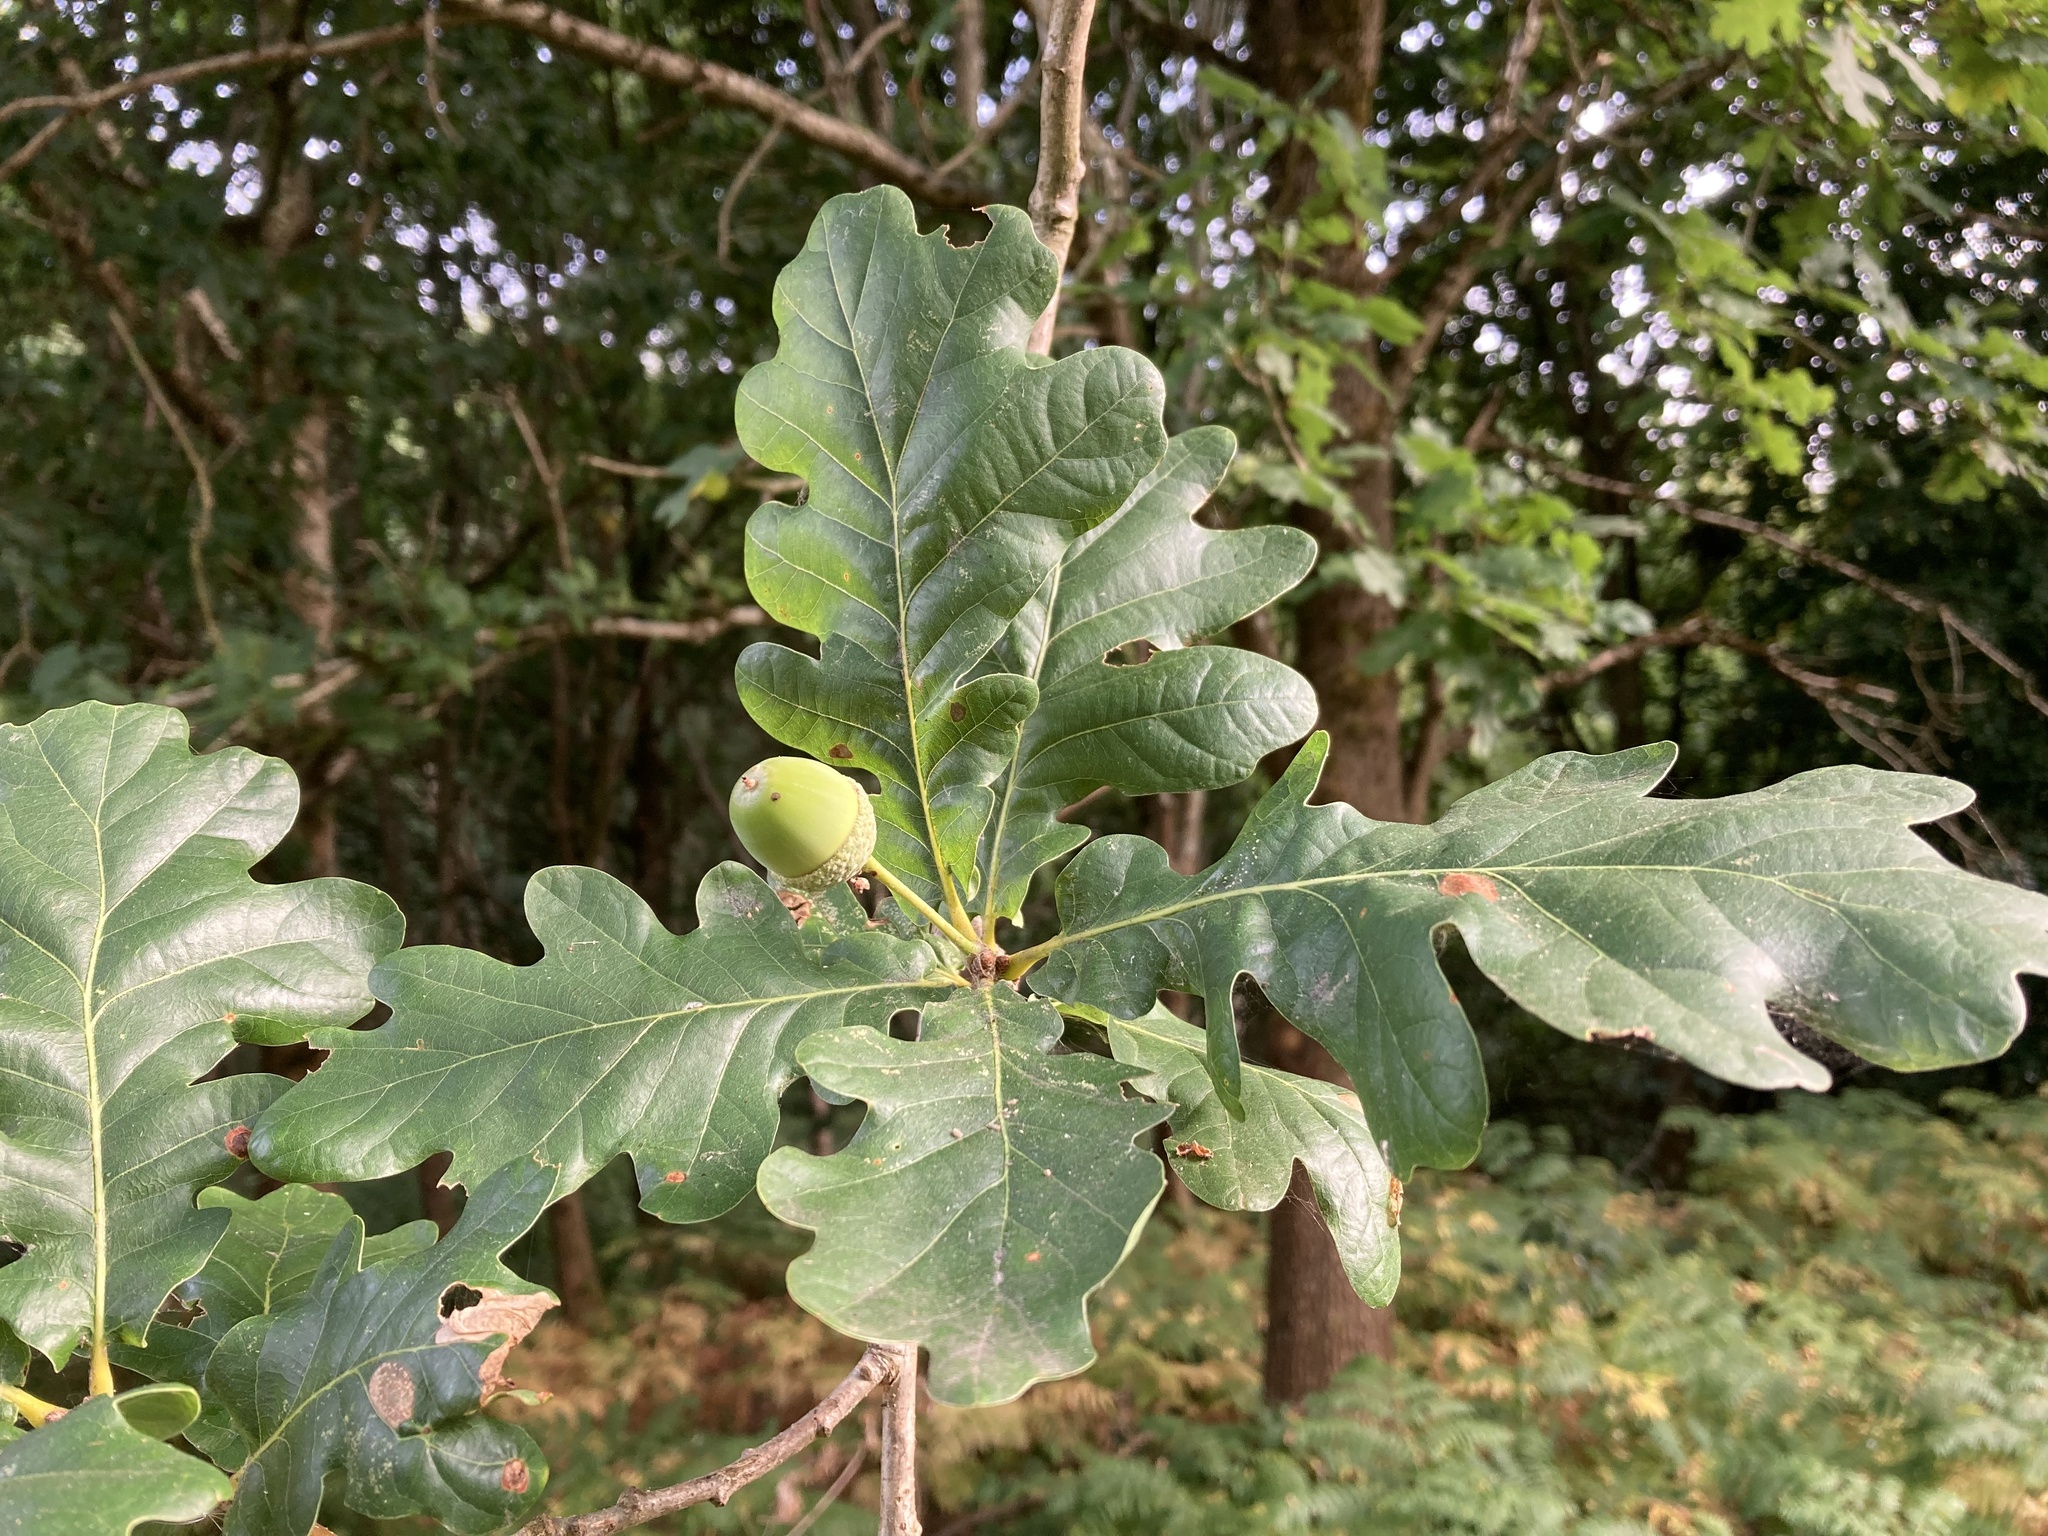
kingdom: Plantae
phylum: Tracheophyta
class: Magnoliopsida
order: Fagales
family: Fagaceae
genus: Quercus
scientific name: Quercus robur
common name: Pedunculate oak
